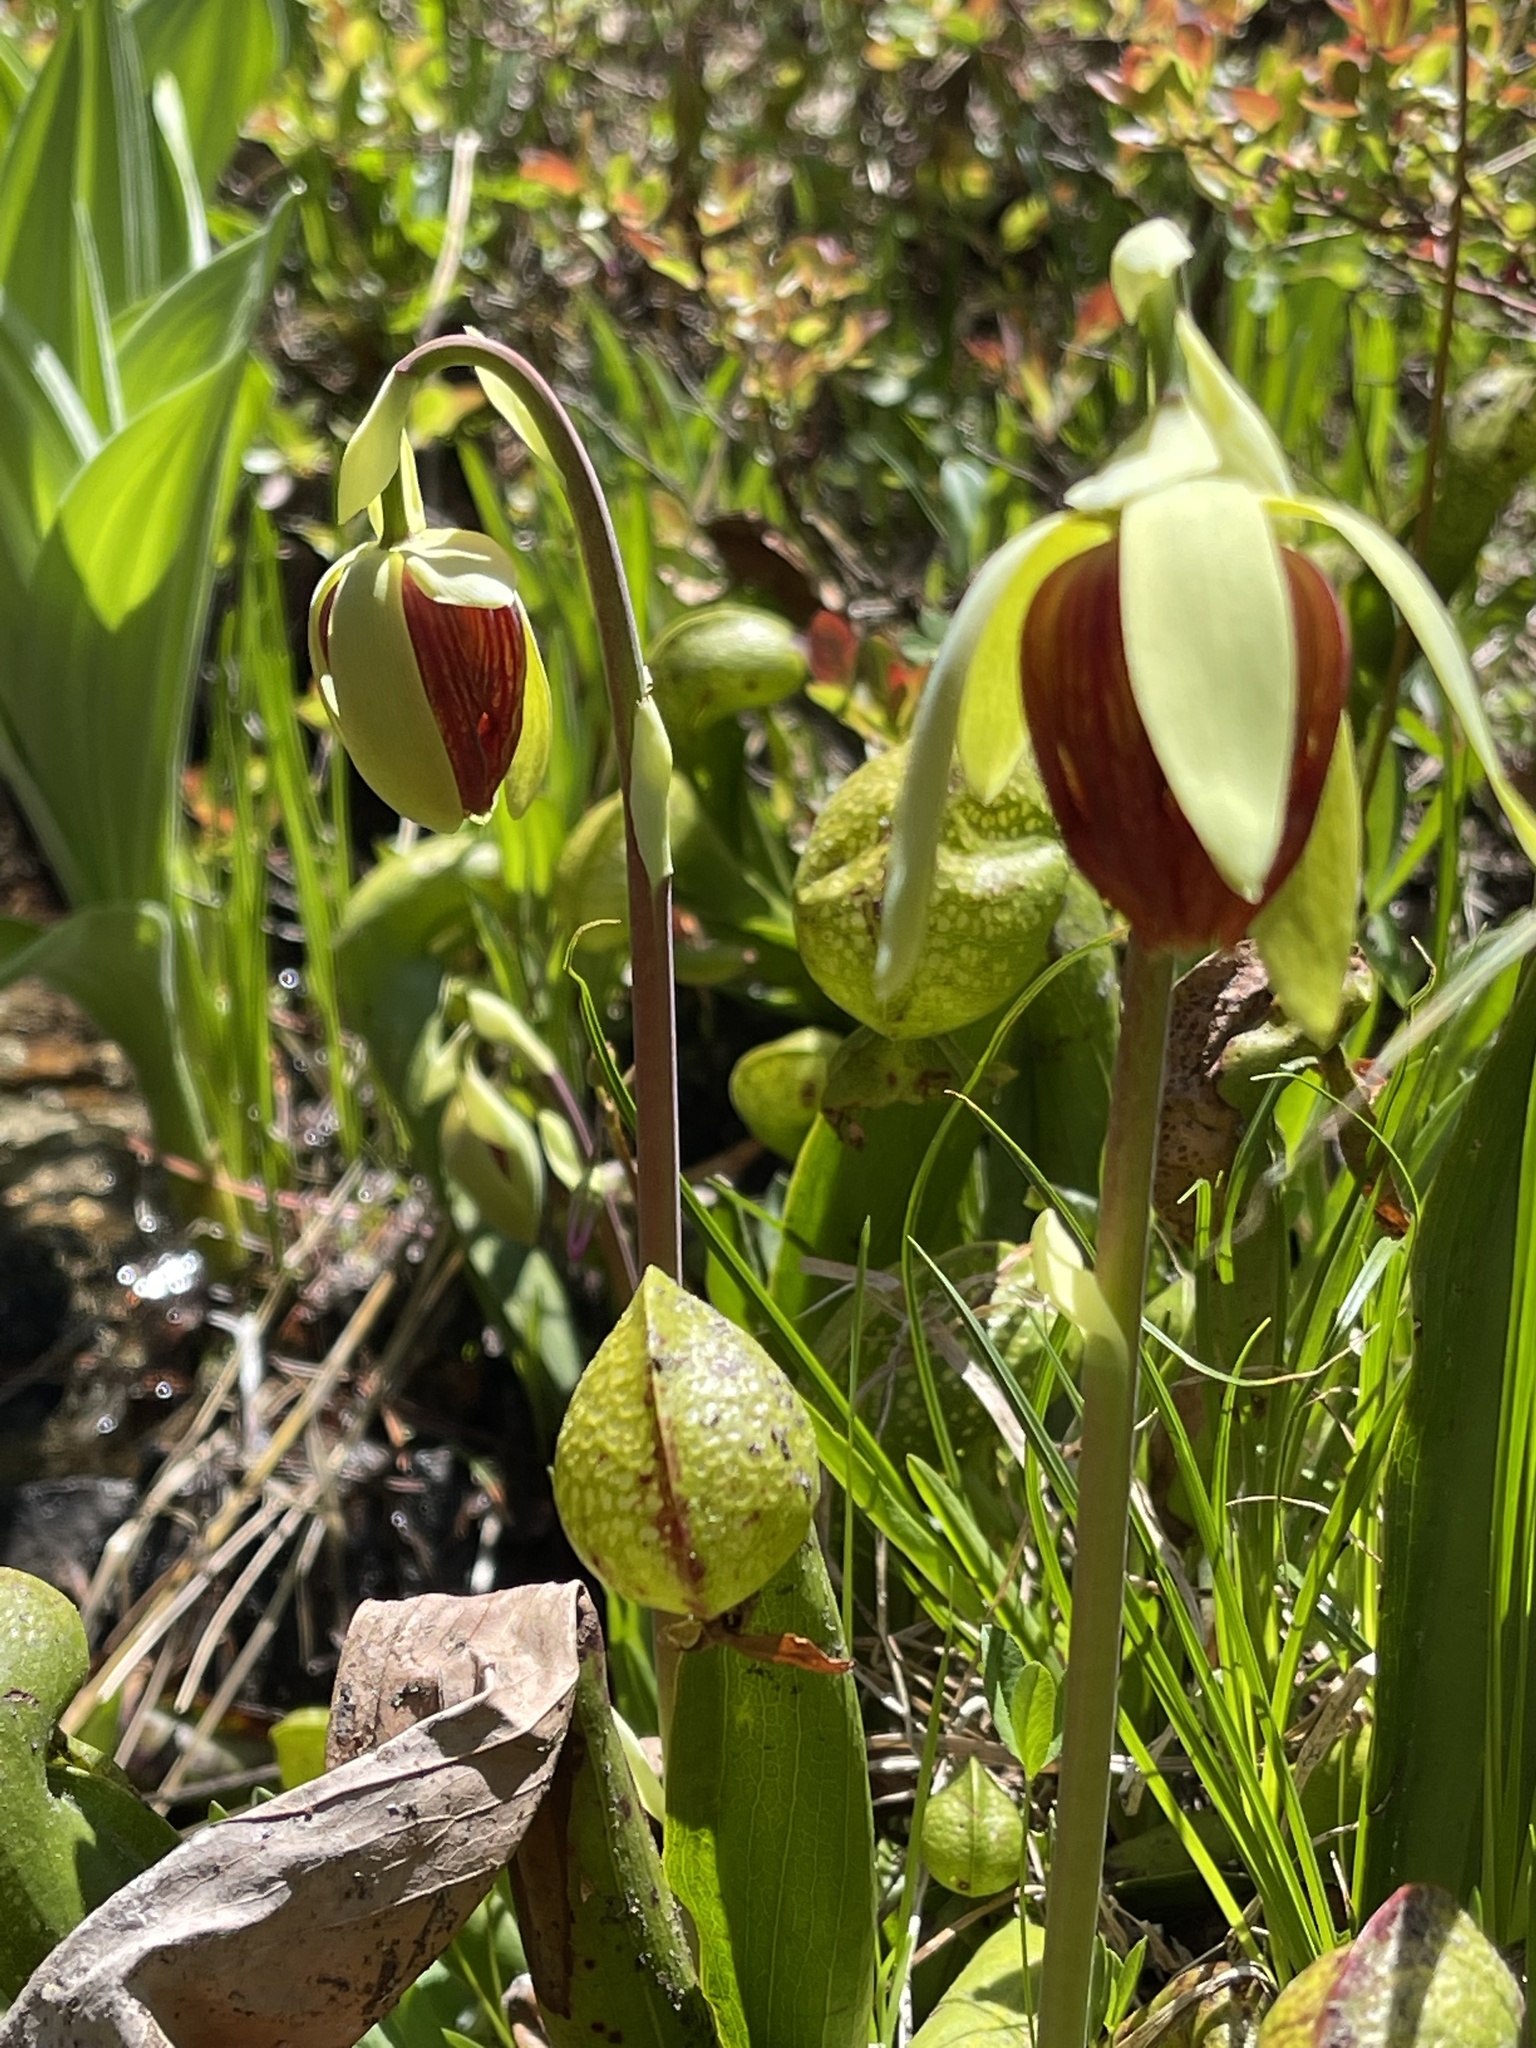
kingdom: Plantae
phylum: Tracheophyta
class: Magnoliopsida
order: Ericales
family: Sarraceniaceae
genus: Darlingtonia
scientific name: Darlingtonia californica
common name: California pitcher plant
